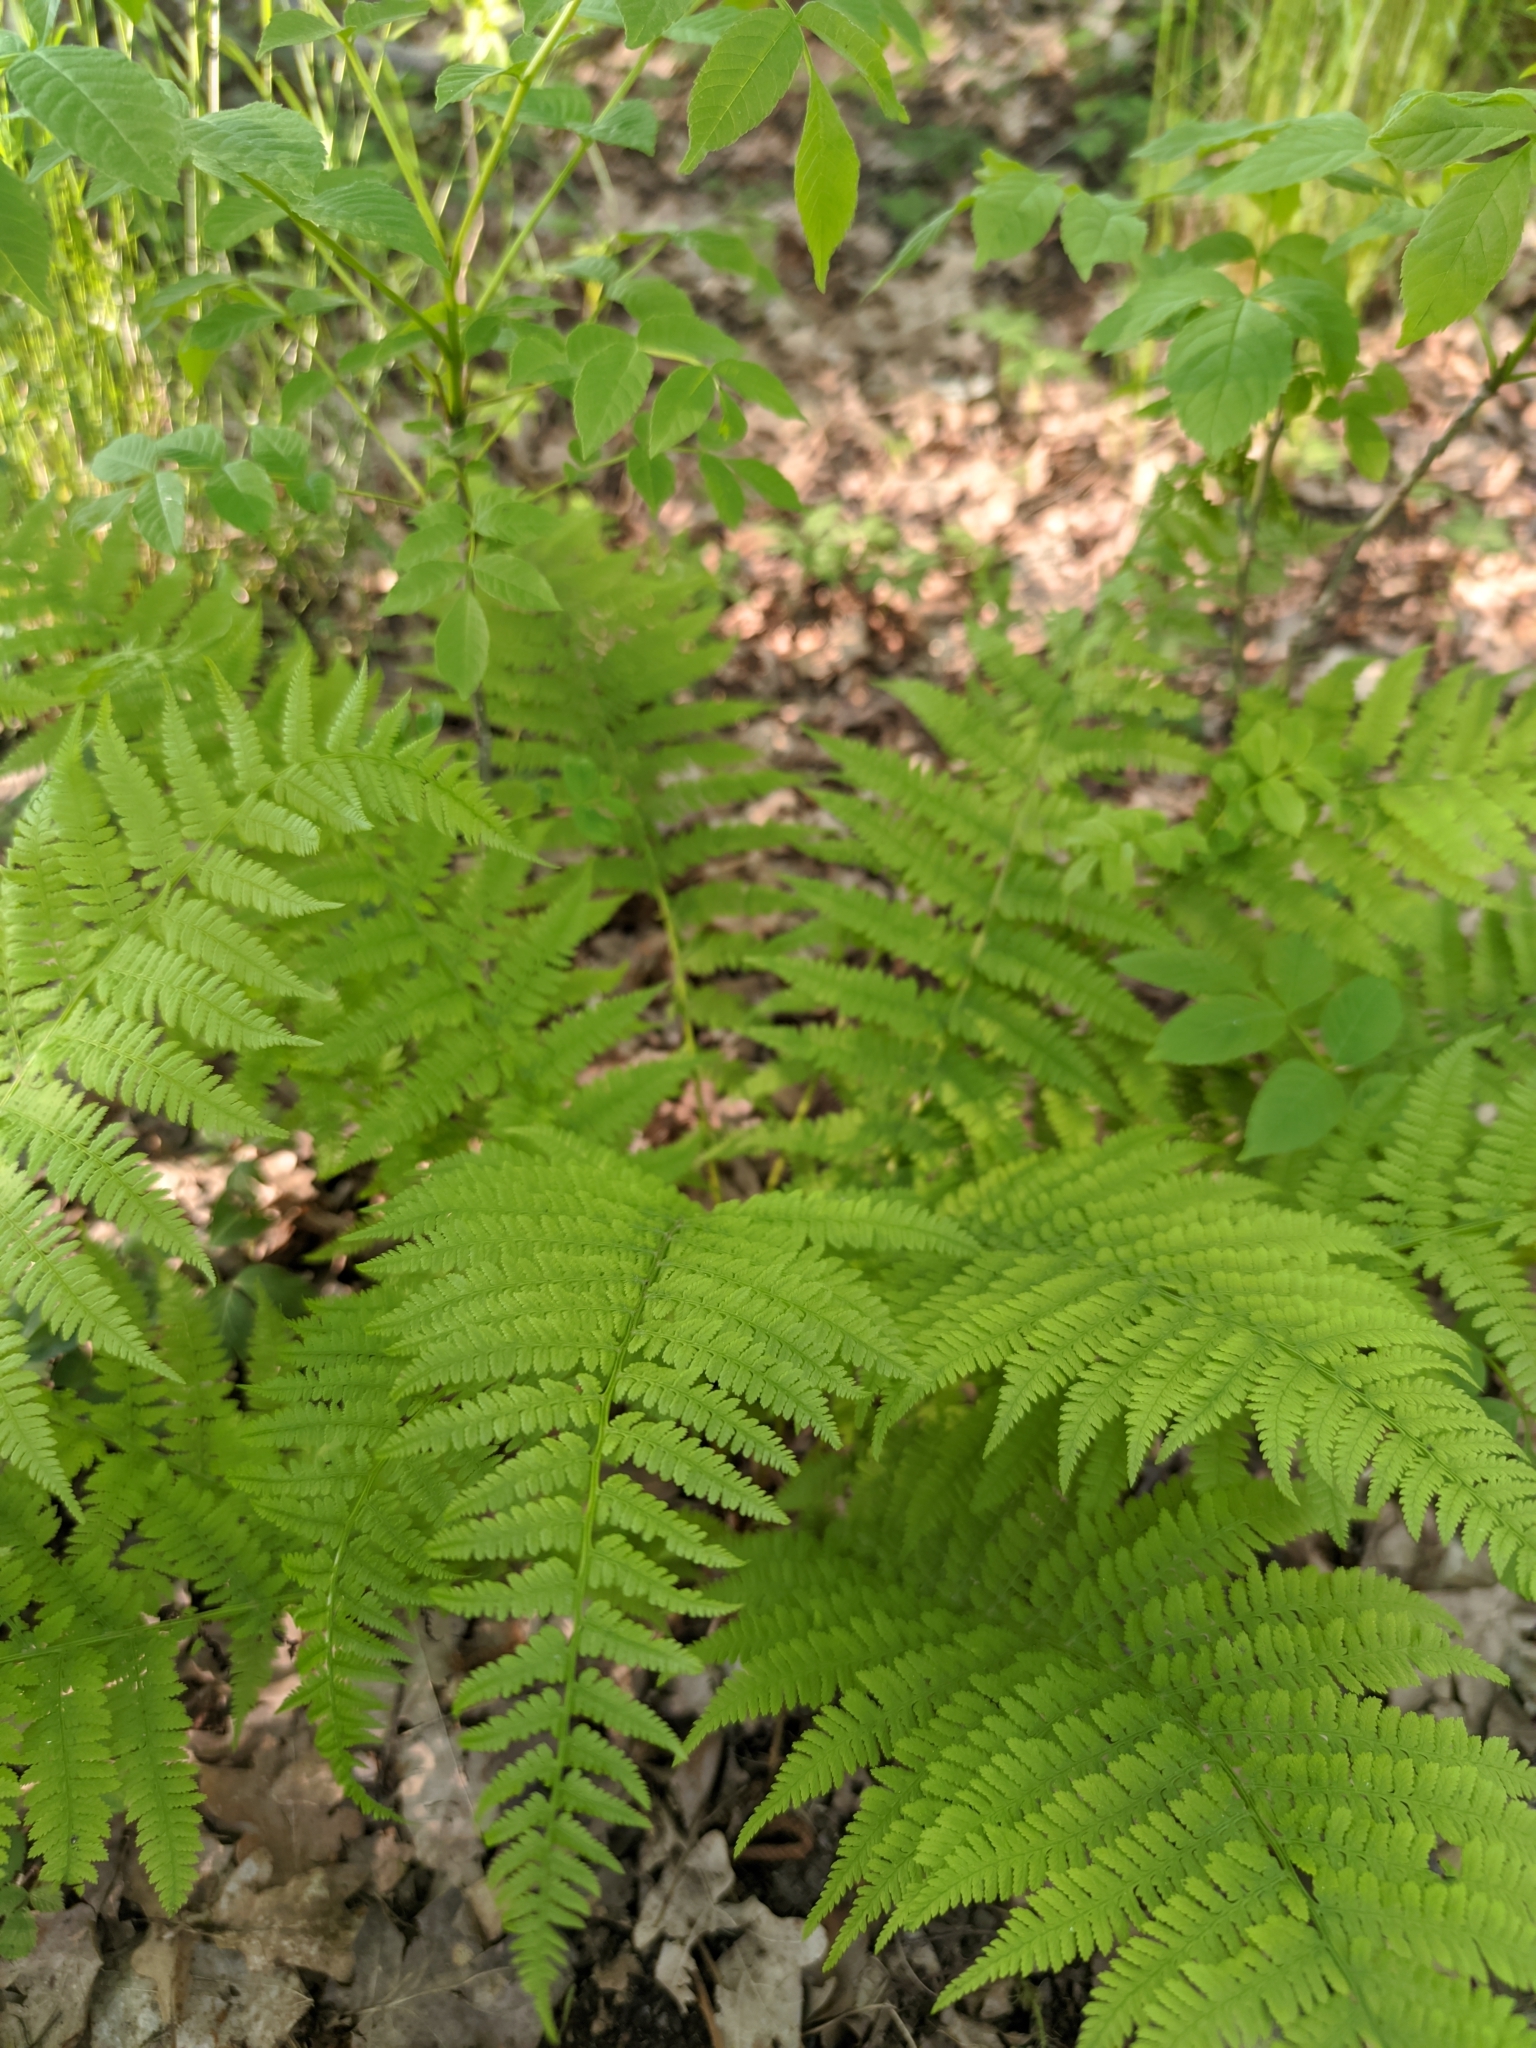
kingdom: Plantae
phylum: Tracheophyta
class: Polypodiopsida
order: Polypodiales
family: Athyriaceae
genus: Athyrium
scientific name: Athyrium filix-femina
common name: Lady fern
